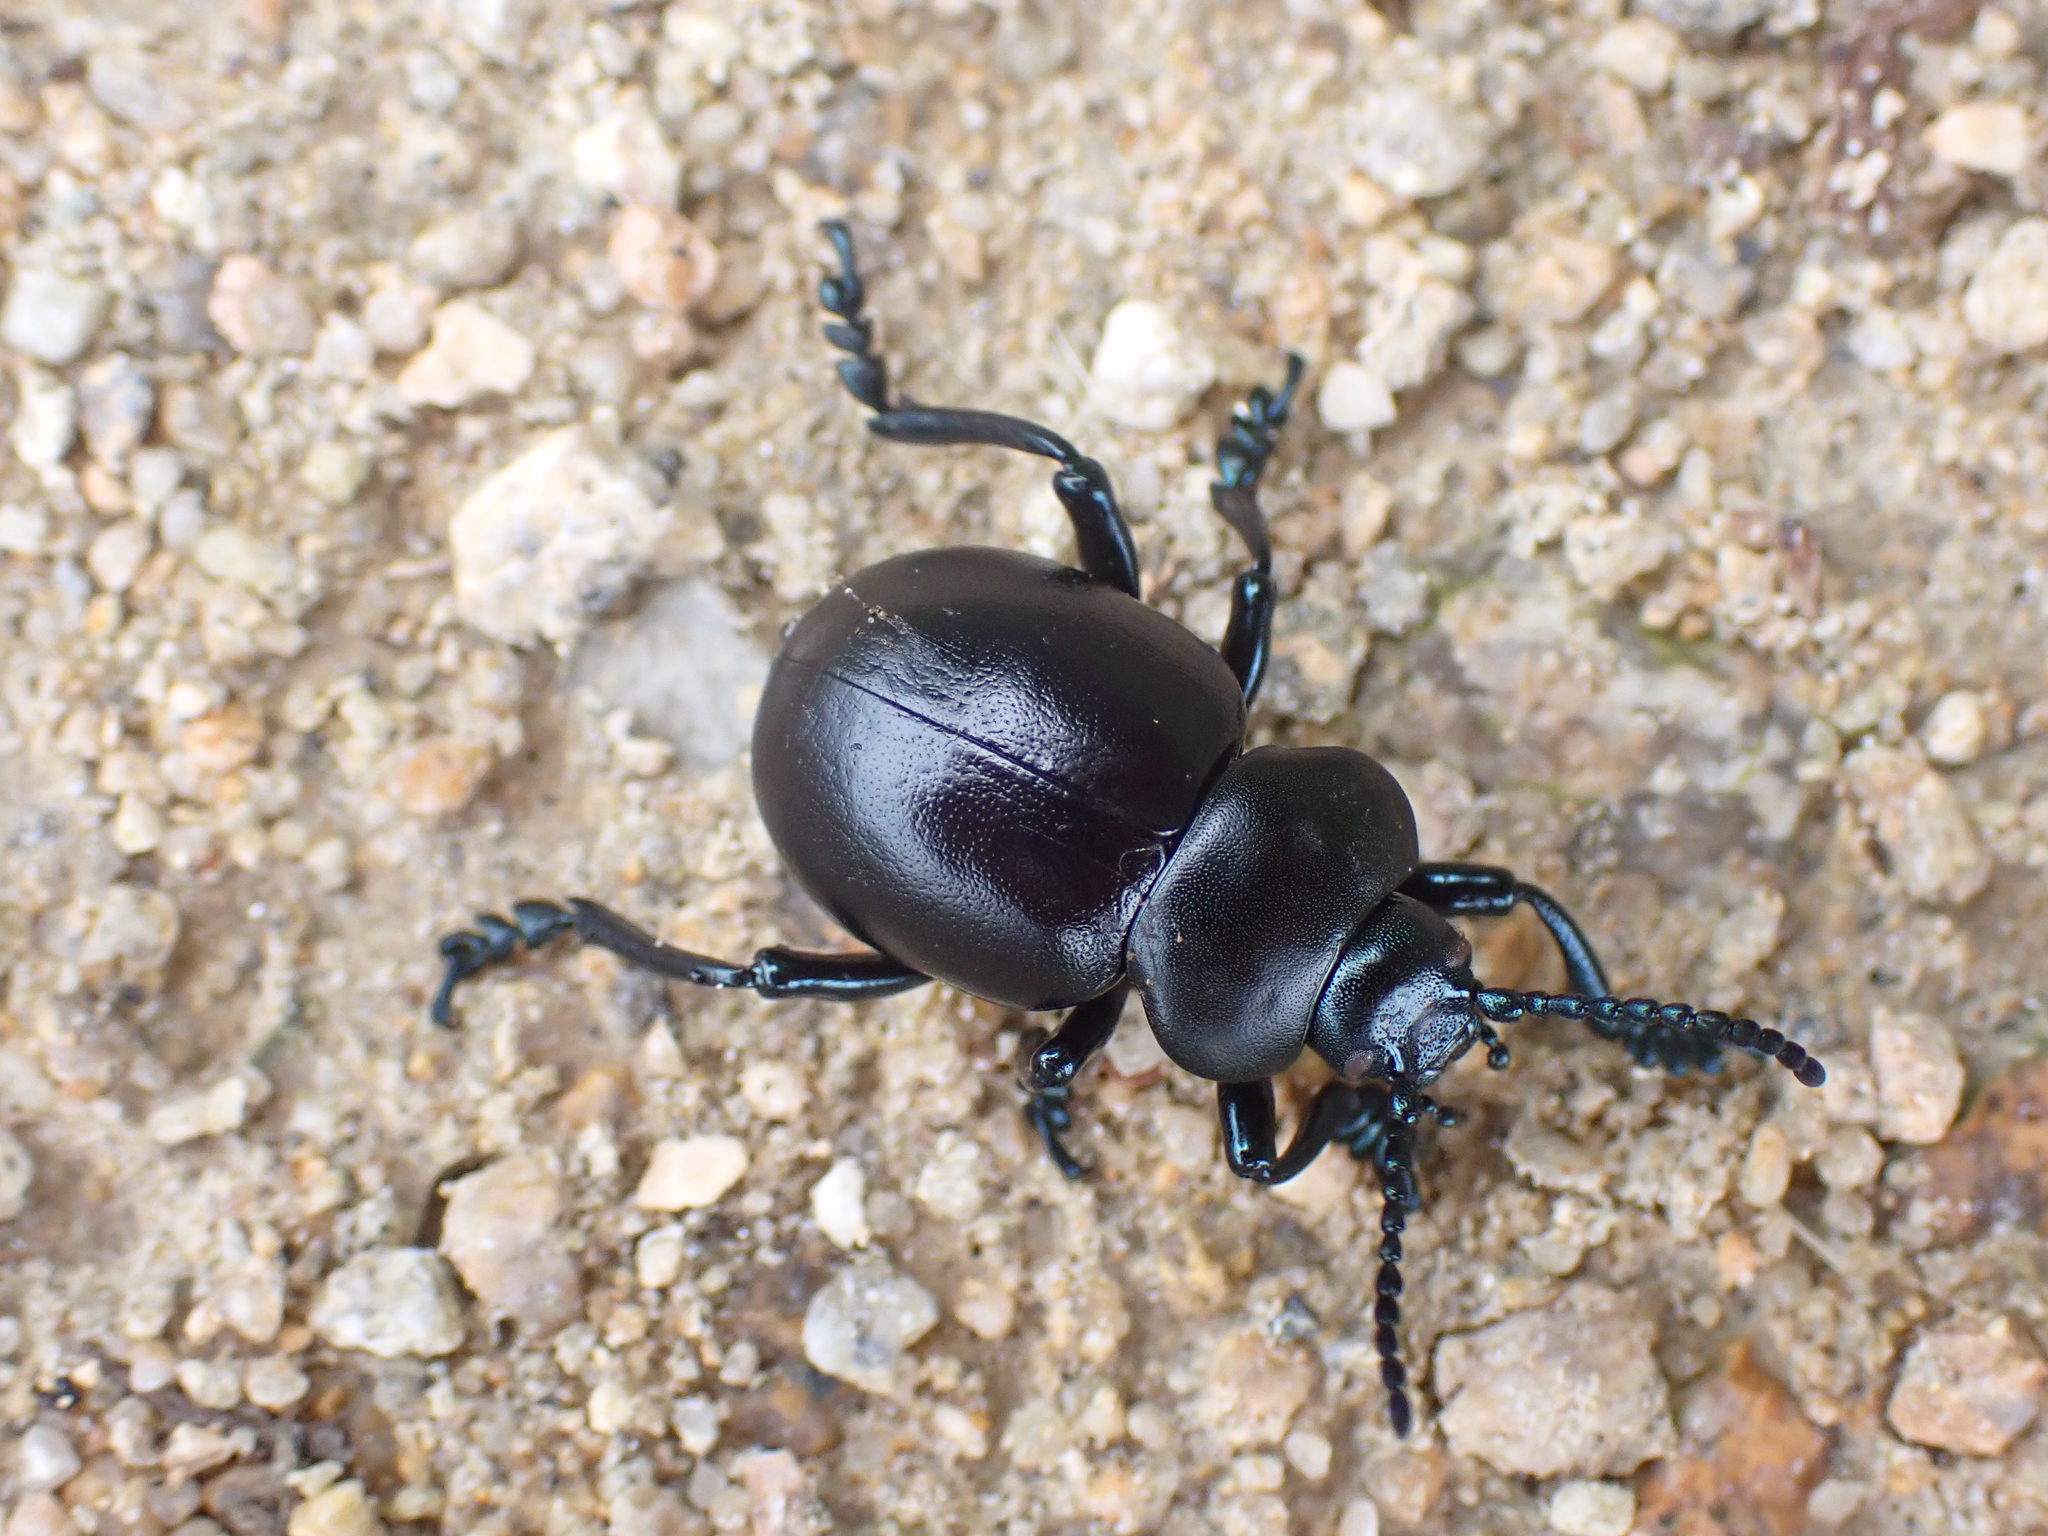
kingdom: Animalia
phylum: Arthropoda
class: Insecta
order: Coleoptera
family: Chrysomelidae
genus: Timarcha
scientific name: Timarcha tenebricosa
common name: Bloody-nosed beetle
